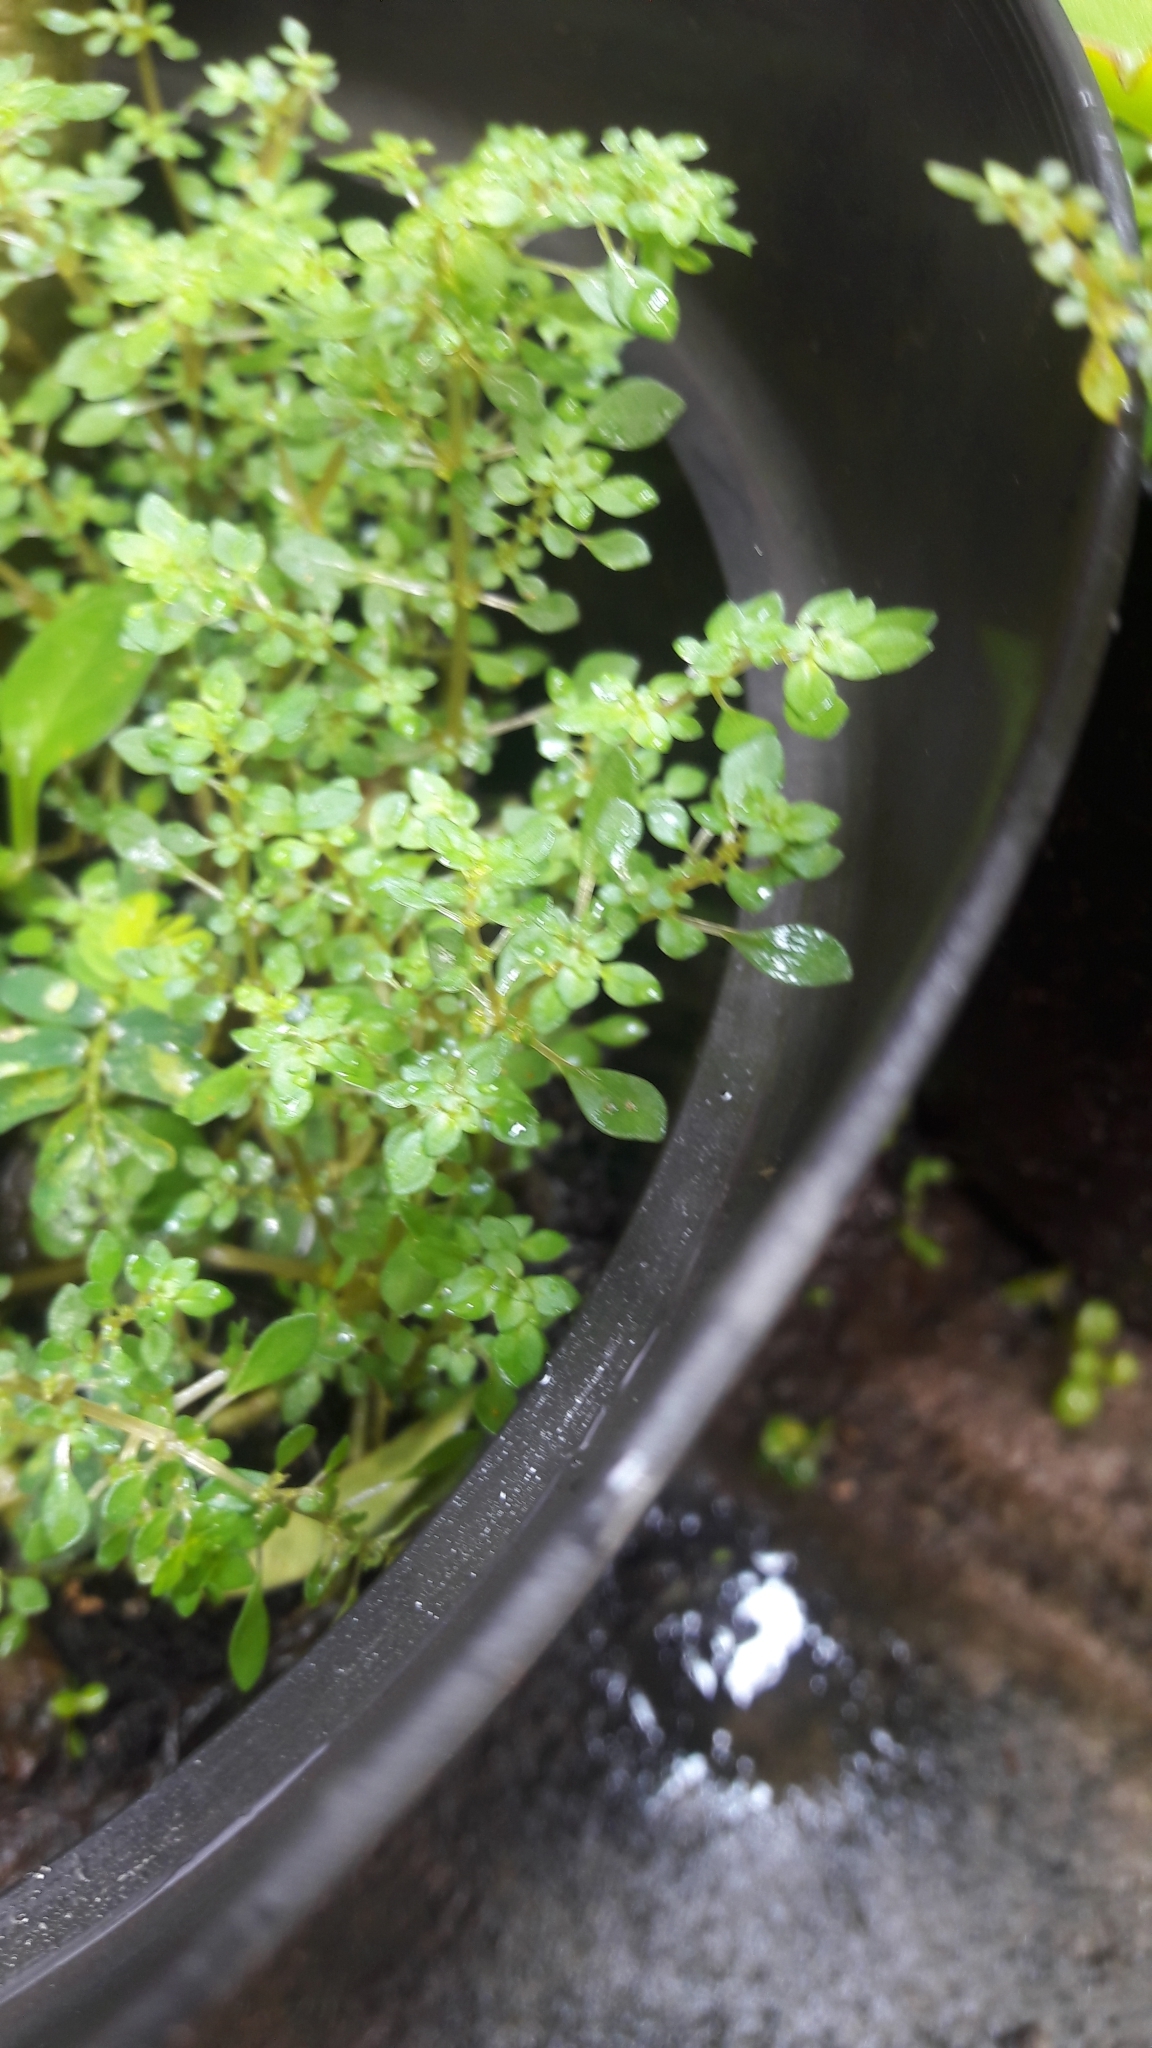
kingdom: Plantae
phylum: Tracheophyta
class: Magnoliopsida
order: Rosales
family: Urticaceae
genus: Pilea
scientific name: Pilea microphylla
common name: Artillery-plant
